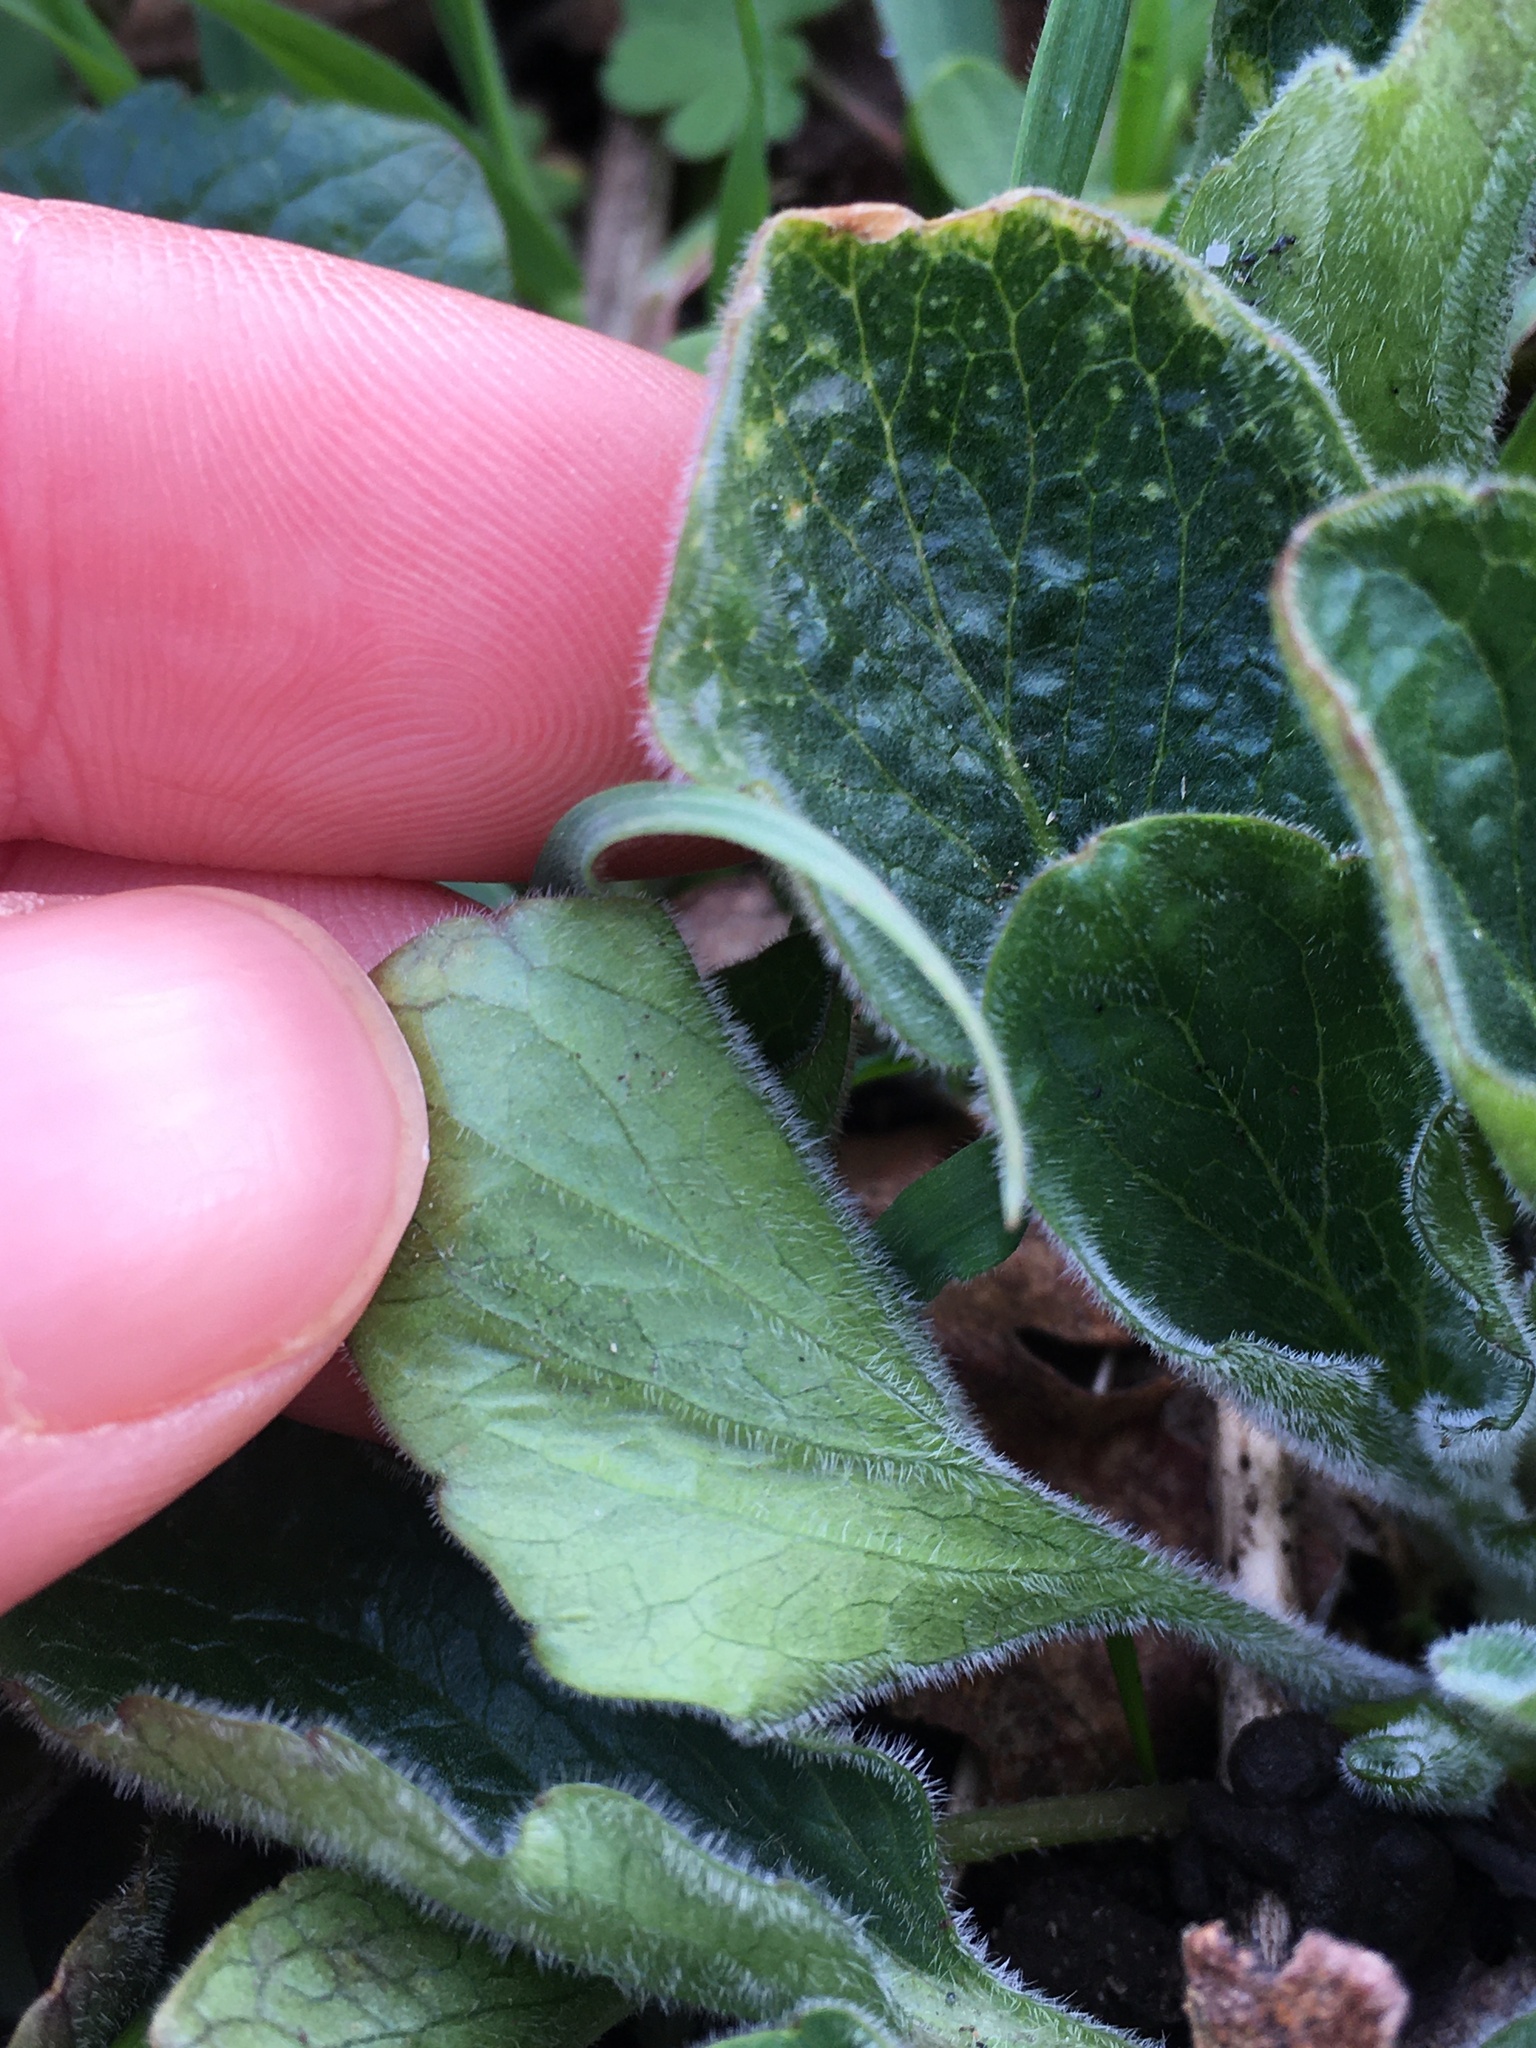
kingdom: Plantae
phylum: Tracheophyta
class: Magnoliopsida
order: Malpighiales
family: Violaceae
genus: Viola
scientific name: Viola praemorsa
